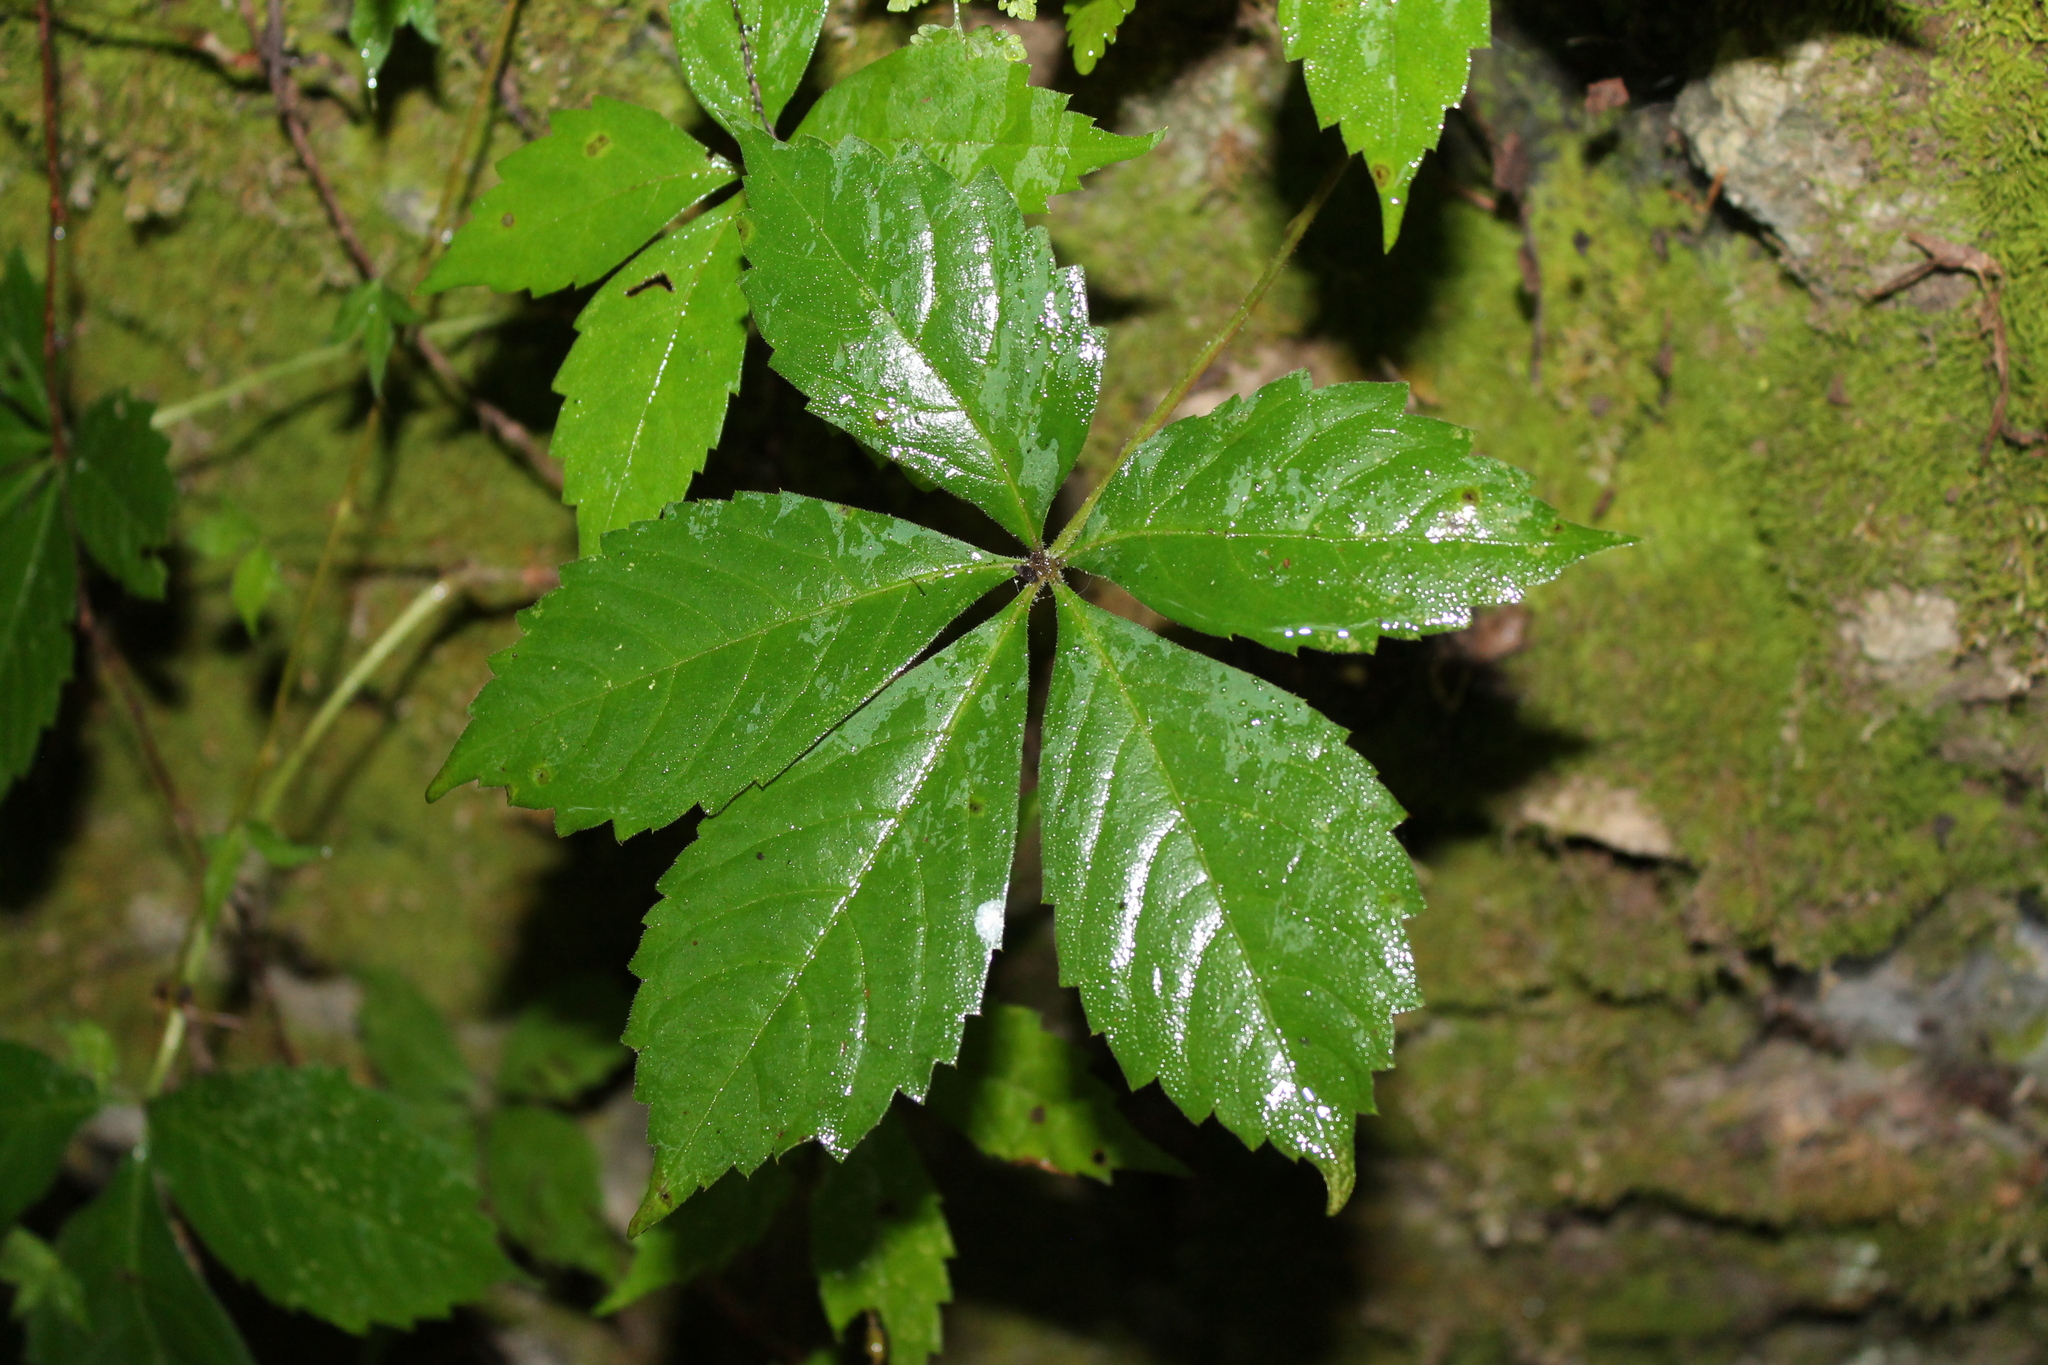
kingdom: Plantae
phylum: Tracheophyta
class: Magnoliopsida
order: Vitales
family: Vitaceae
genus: Parthenocissus
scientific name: Parthenocissus quinquefolia
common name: Virginia-creeper
